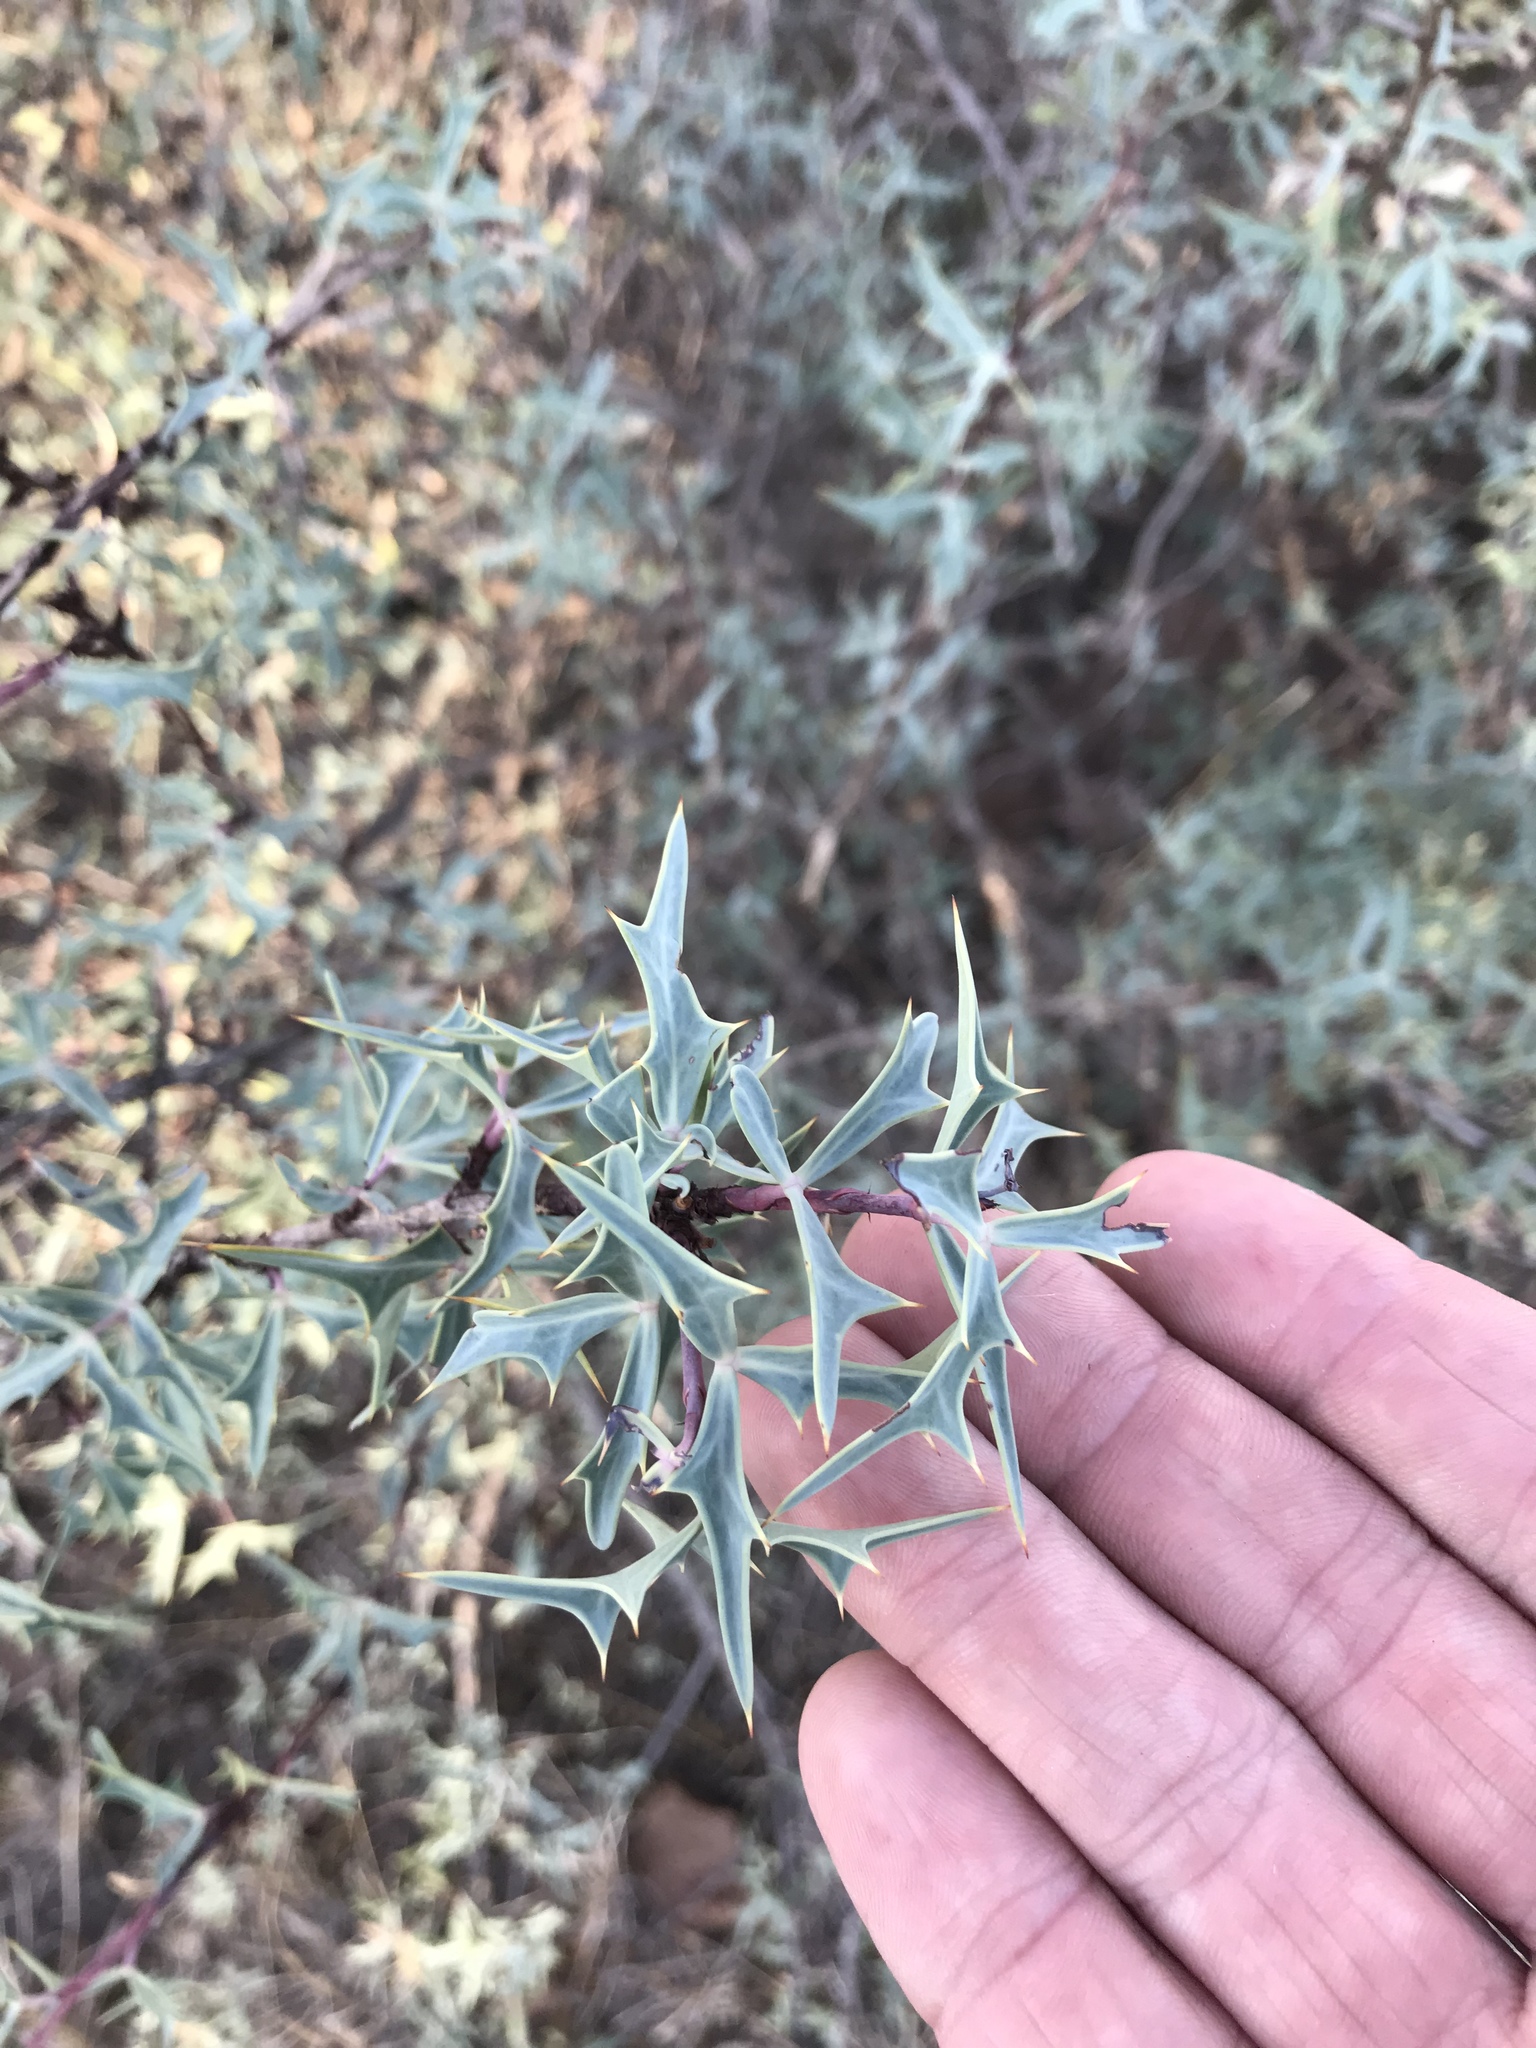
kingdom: Plantae
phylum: Tracheophyta
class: Magnoliopsida
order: Ranunculales
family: Berberidaceae
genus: Alloberberis
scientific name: Alloberberis trifoliolata
